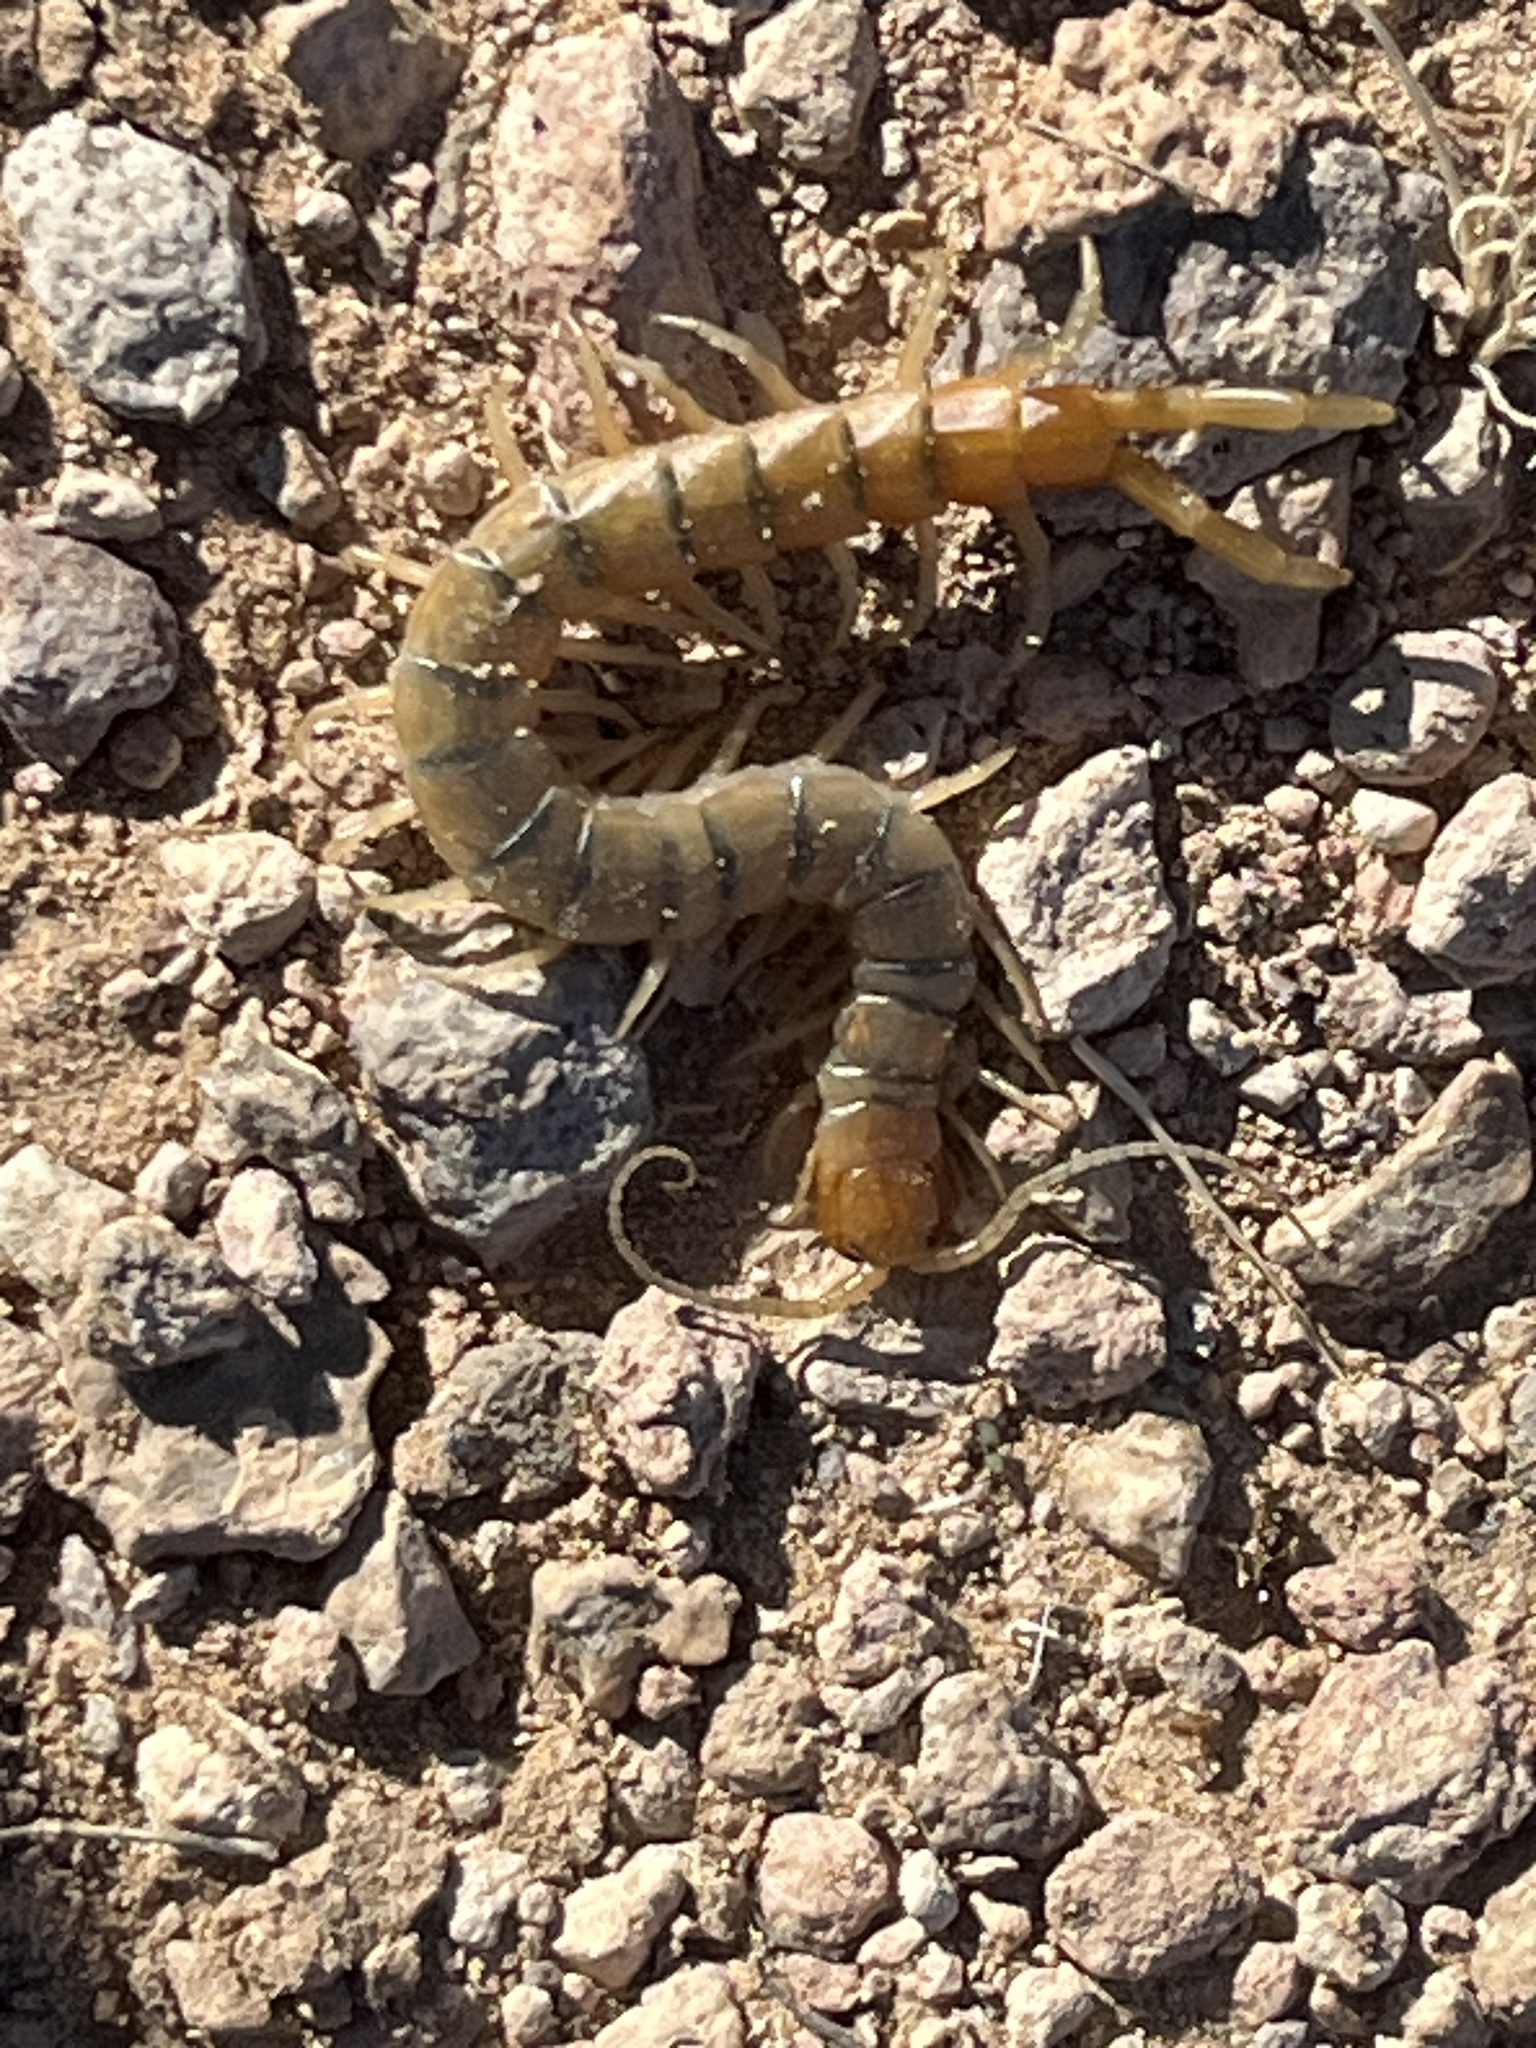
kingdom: Animalia
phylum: Arthropoda
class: Chilopoda
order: Scolopendromorpha
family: Scolopendridae
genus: Scolopendra
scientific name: Scolopendra polymorpha
